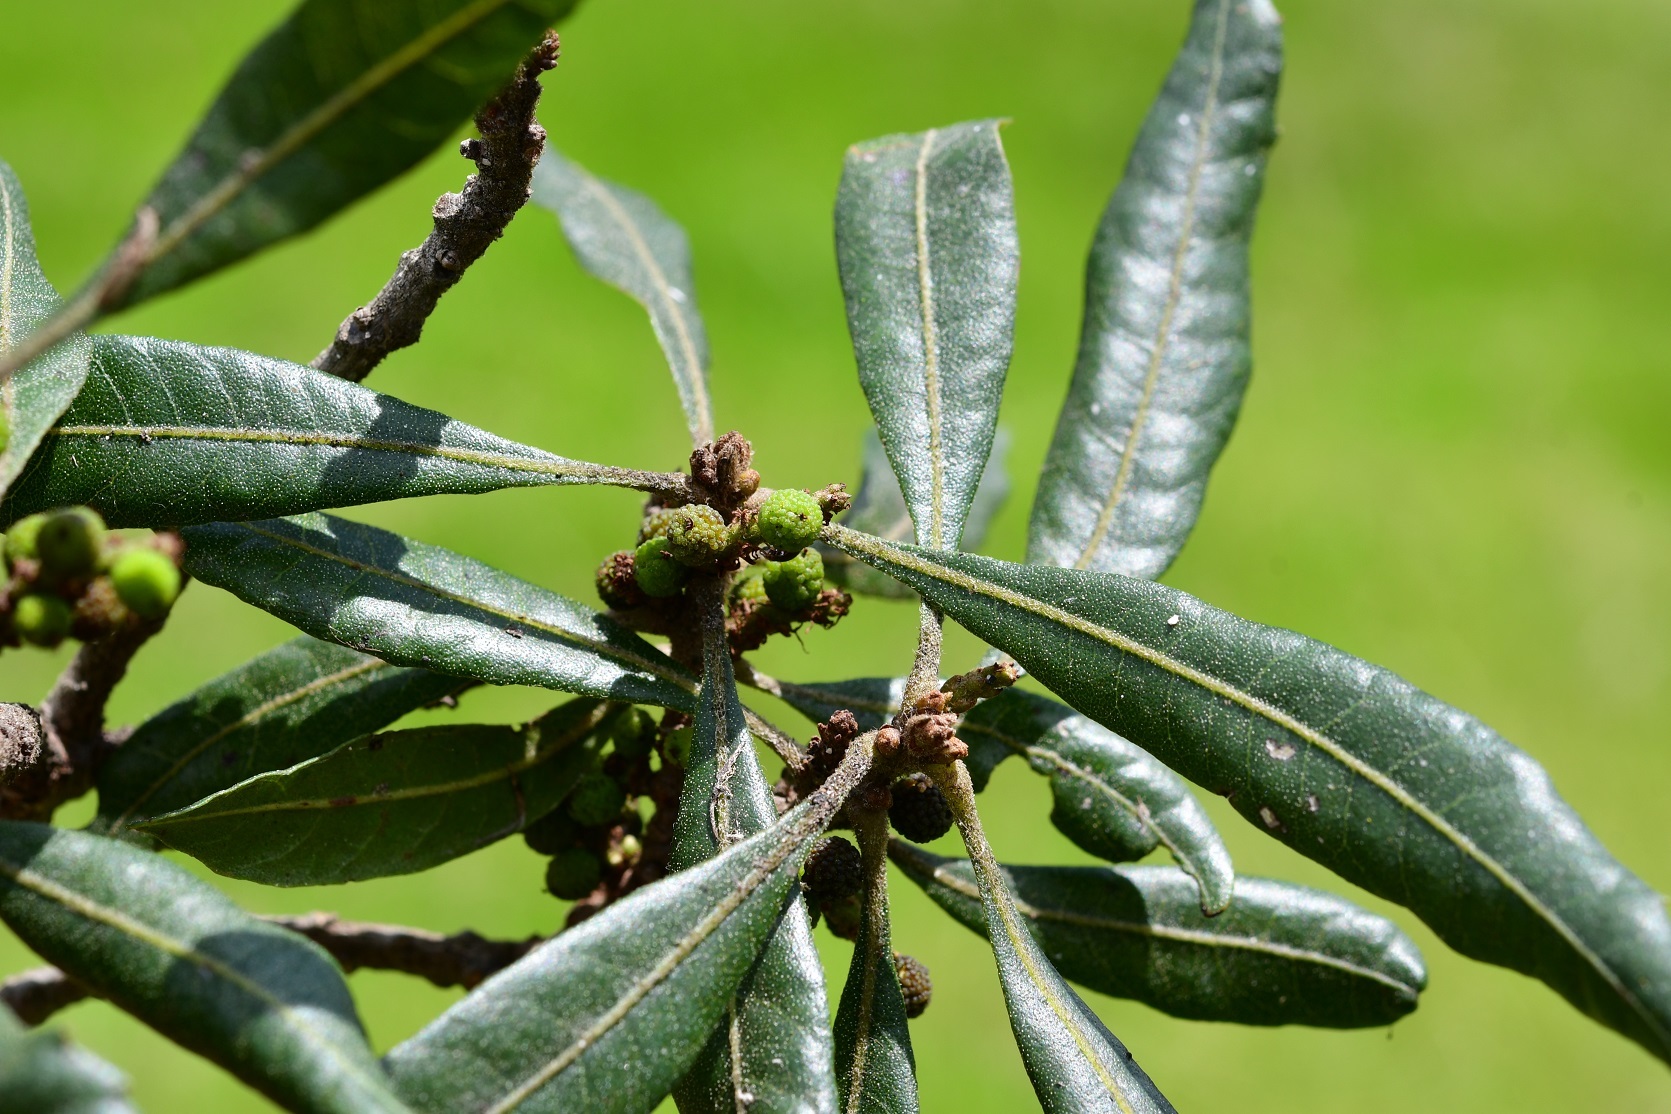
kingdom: Plantae
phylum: Tracheophyta
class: Magnoliopsida
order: Fagales
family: Myricaceae
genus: Morella
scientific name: Morella cerifera
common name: Wax myrtle
